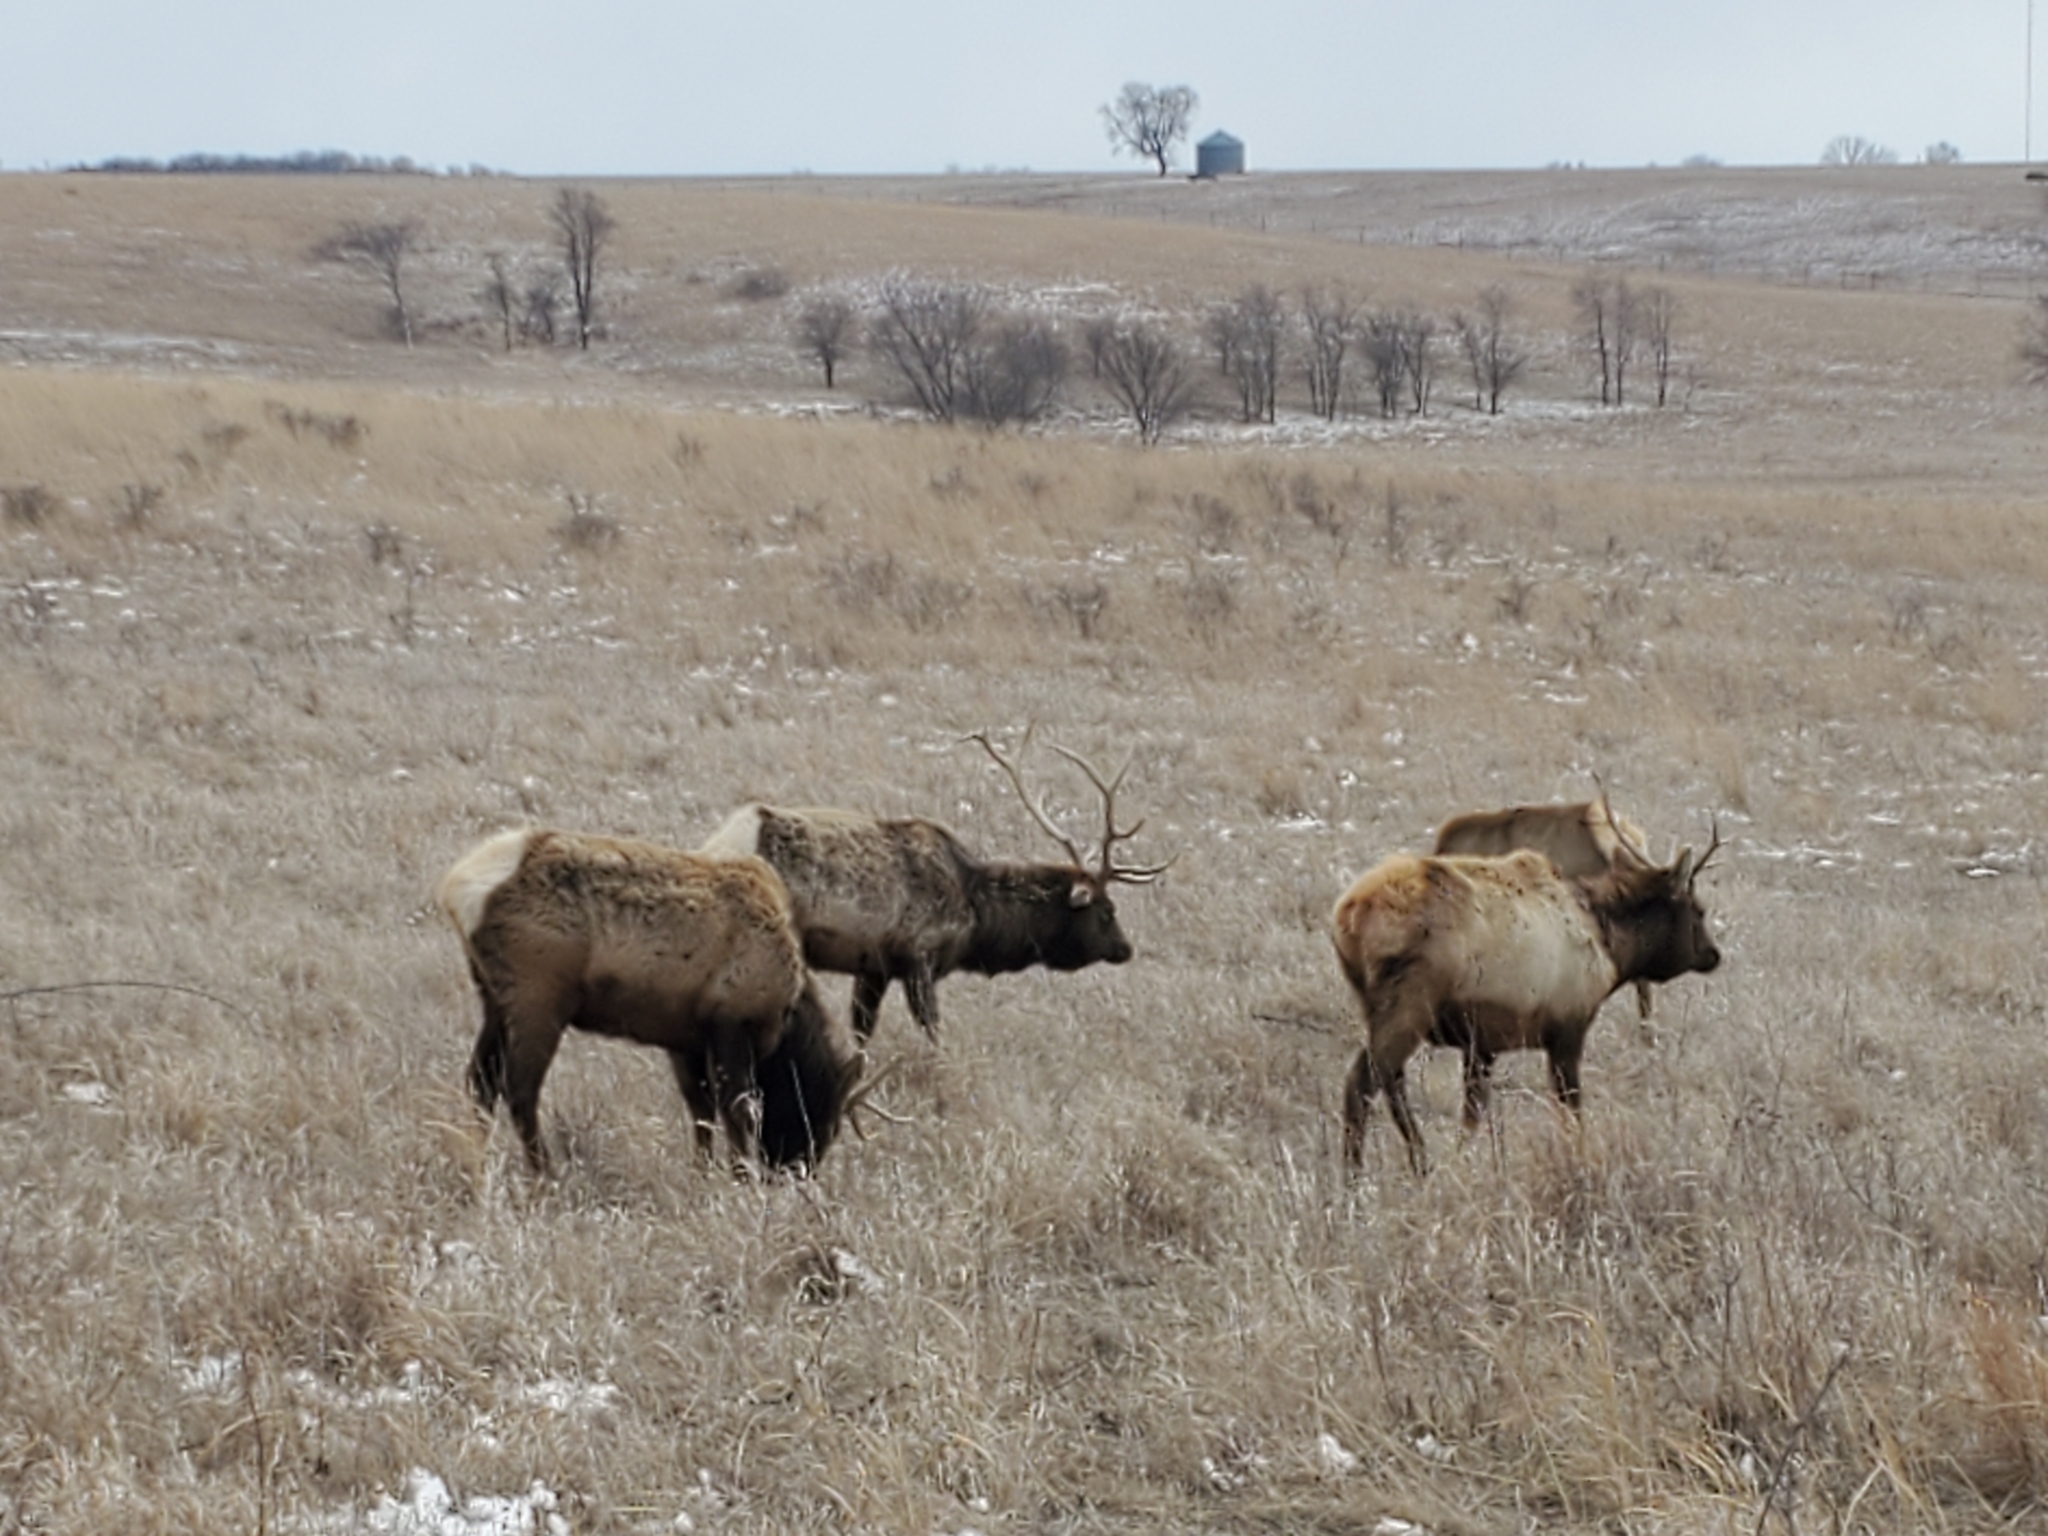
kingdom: Animalia
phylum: Chordata
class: Mammalia
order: Artiodactyla
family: Cervidae
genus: Cervus
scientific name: Cervus elaphus
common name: Red deer
